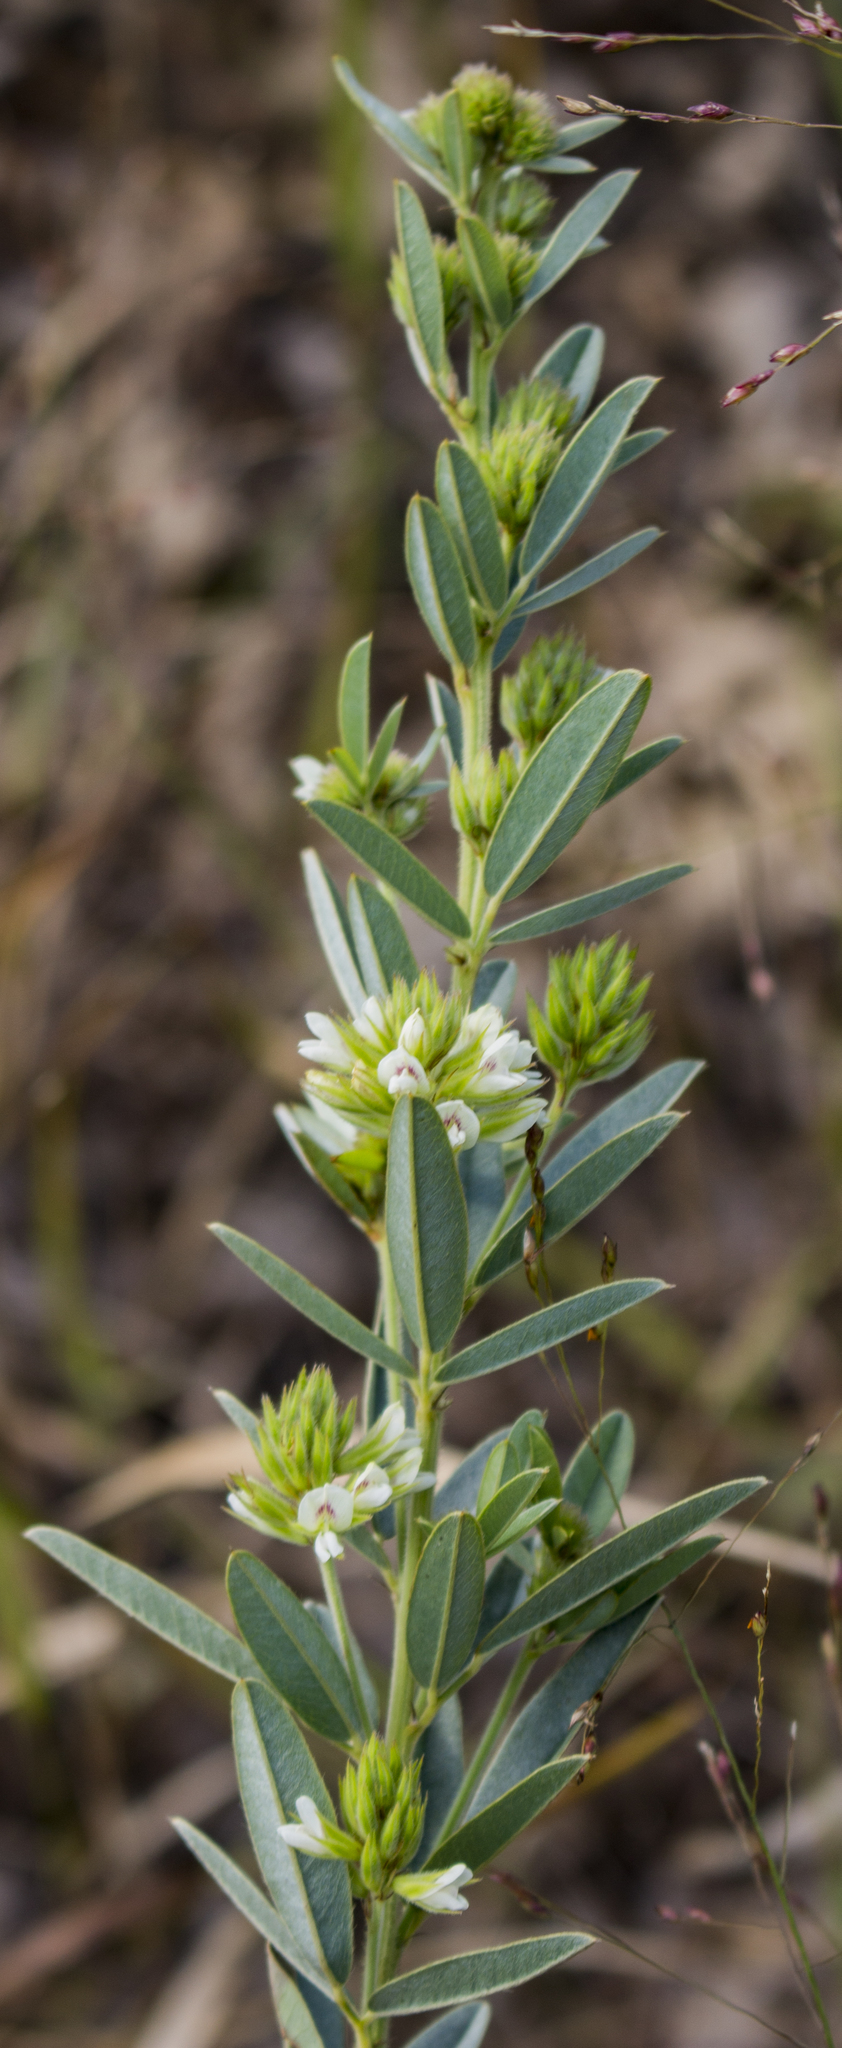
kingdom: Plantae
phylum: Tracheophyta
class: Magnoliopsida
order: Fabales
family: Fabaceae
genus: Lespedeza
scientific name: Lespedeza capitata
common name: Dusty clover
